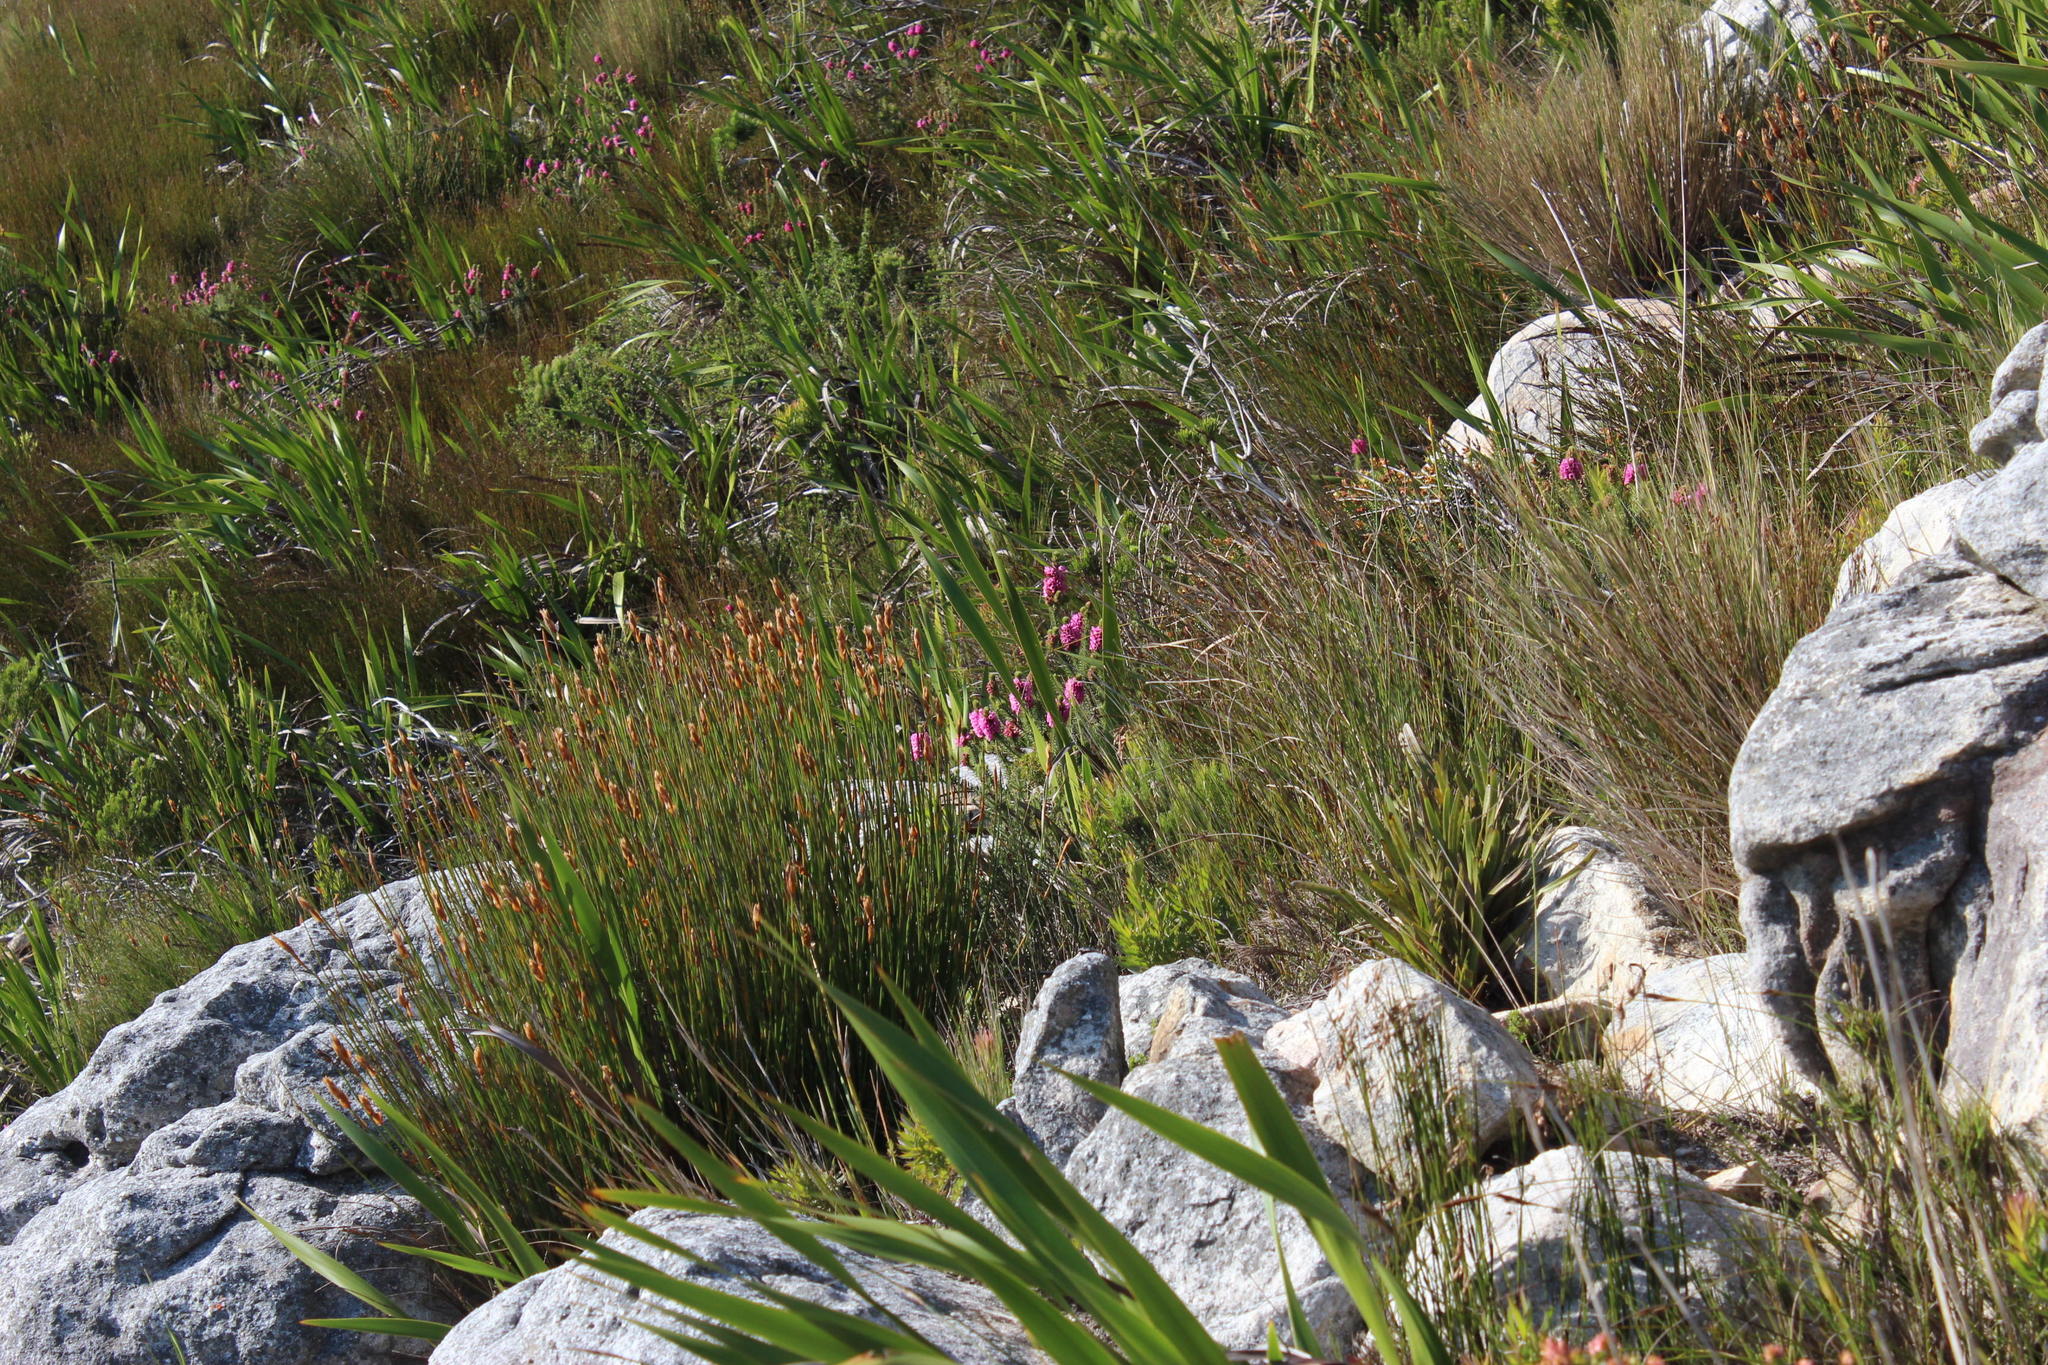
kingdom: Plantae
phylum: Tracheophyta
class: Magnoliopsida
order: Ericales
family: Ericaceae
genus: Erica
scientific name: Erica abietina
